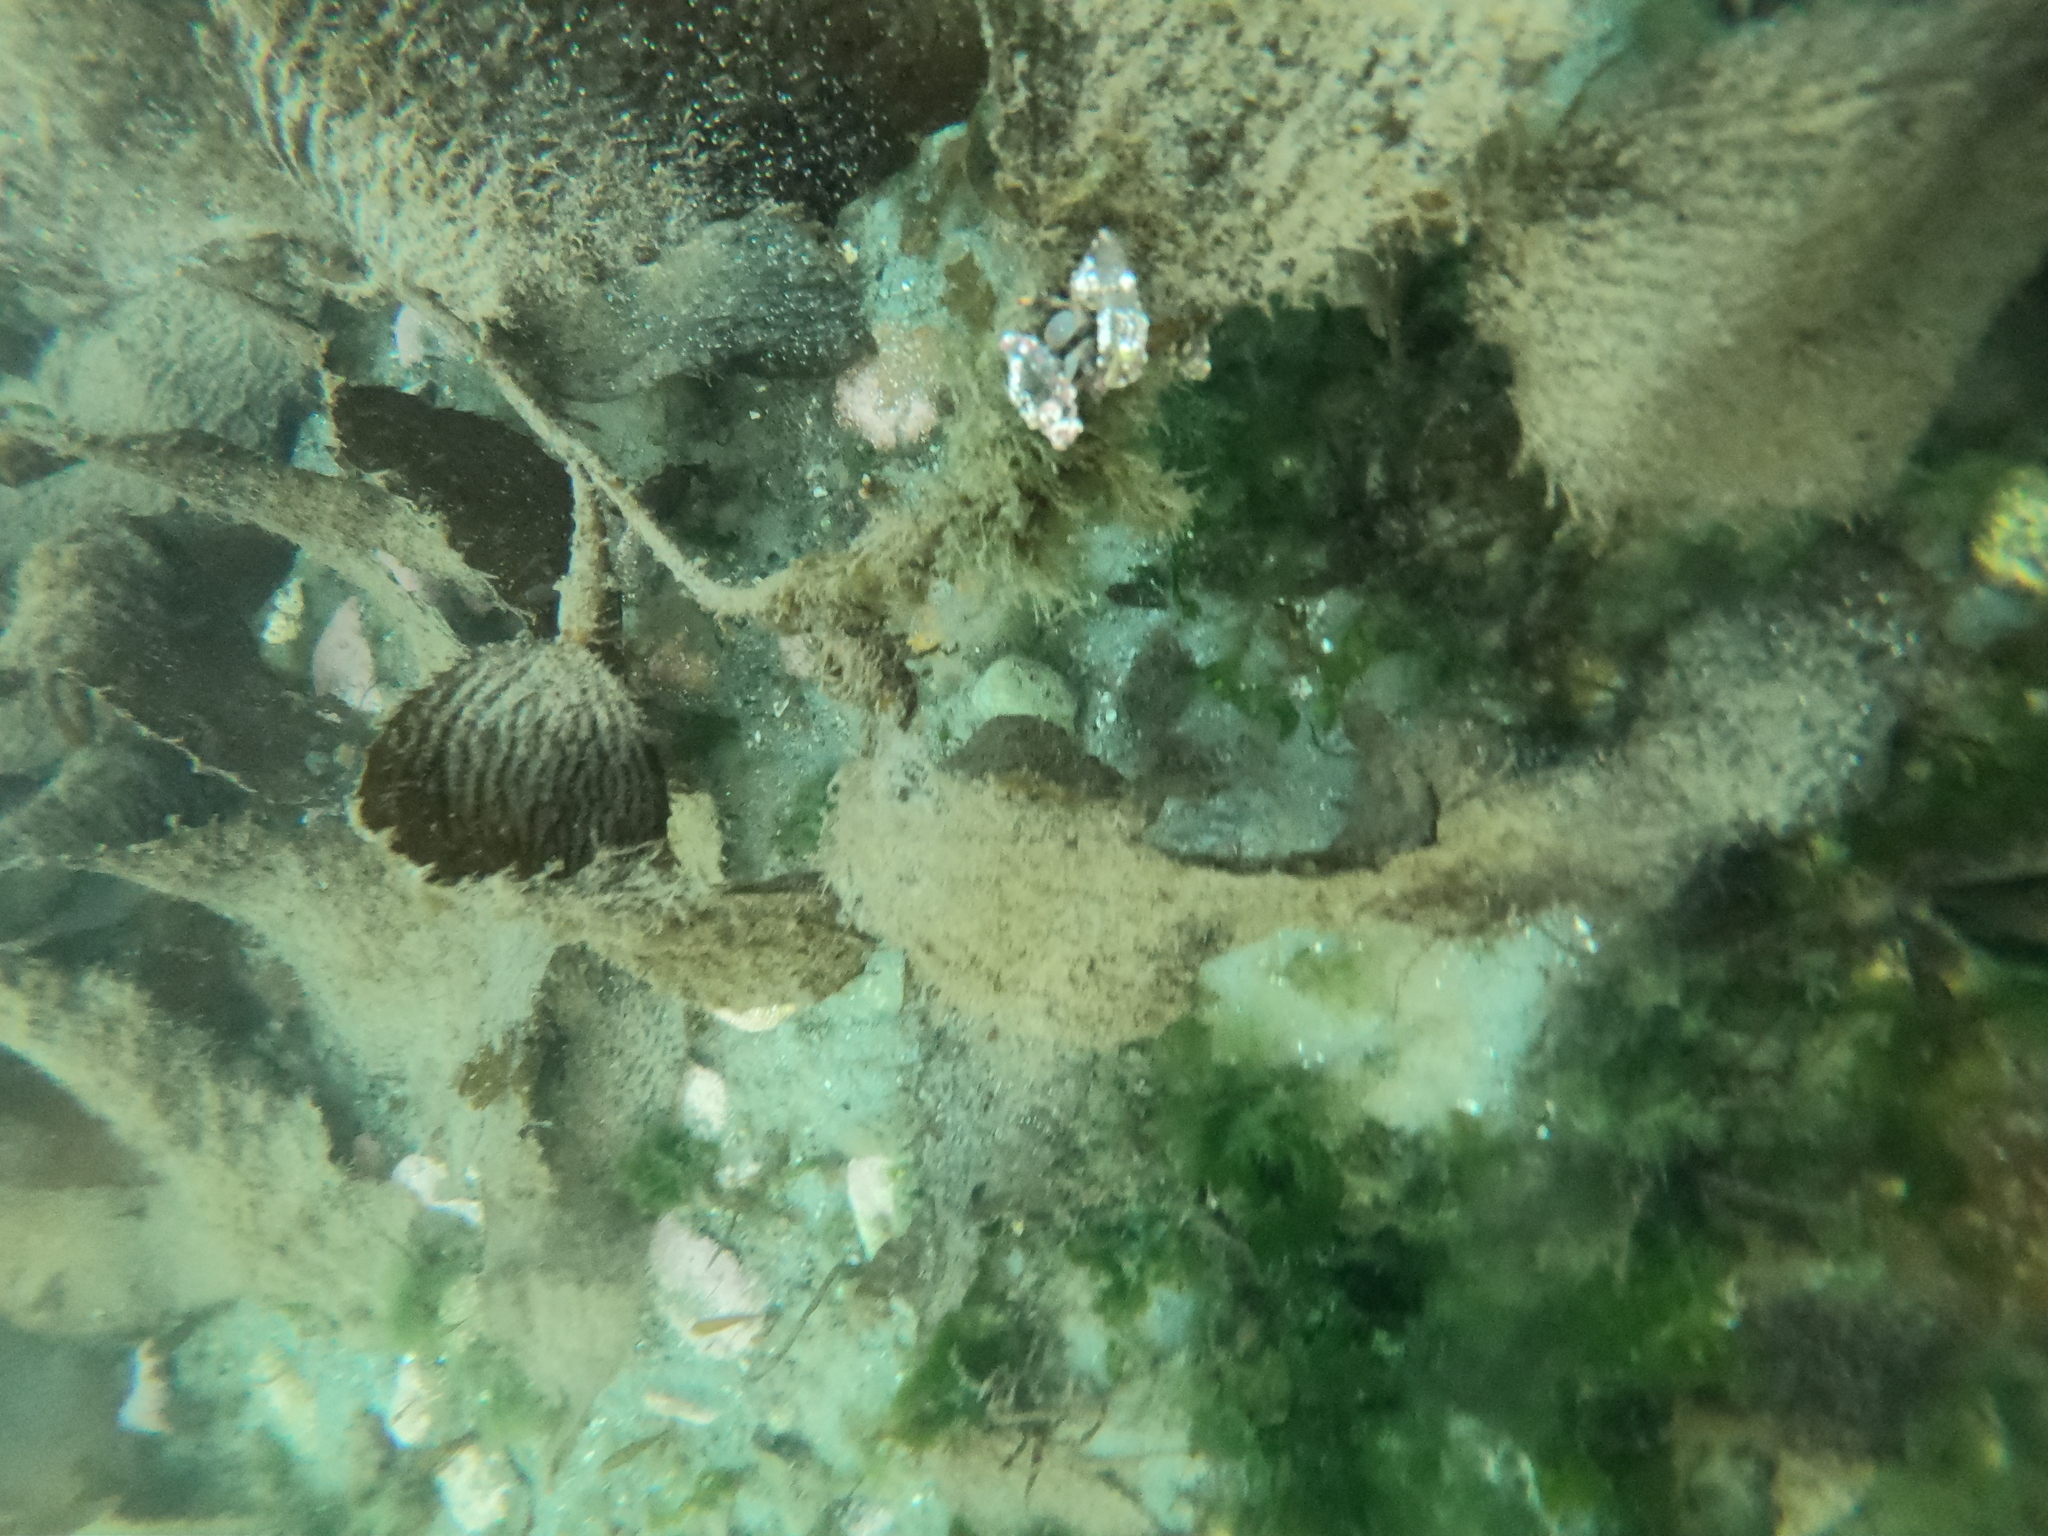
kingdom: Animalia
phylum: Arthropoda
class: Malacostraca
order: Decapoda
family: Paguridae
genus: Pagurus
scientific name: Pagurus comptus
